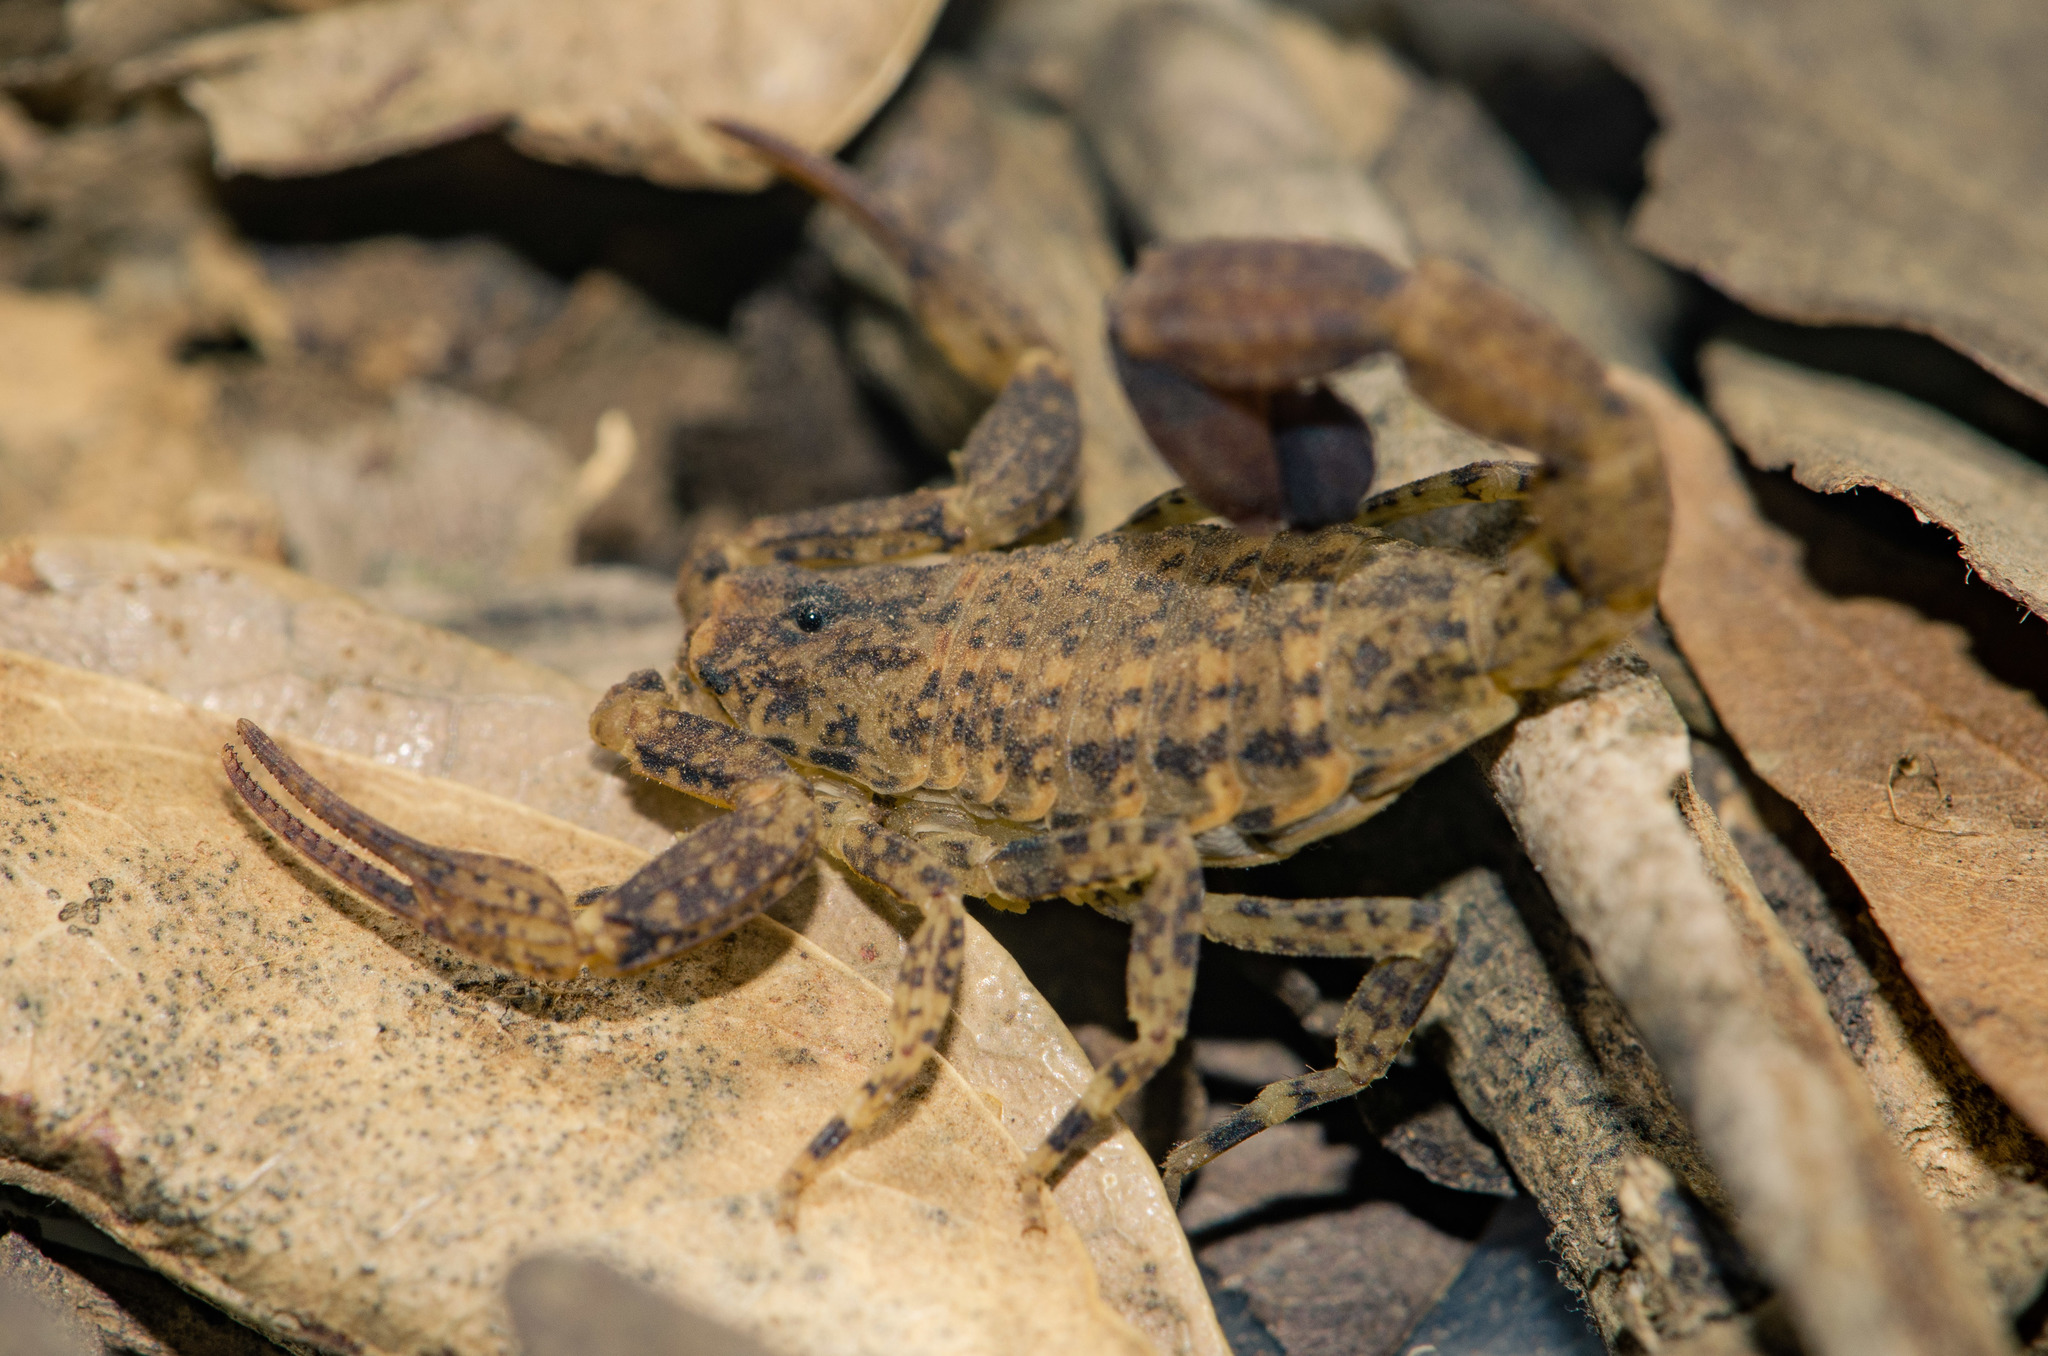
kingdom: Animalia
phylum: Arthropoda
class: Arachnida
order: Scorpiones
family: Buthidae
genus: Tityus
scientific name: Tityus mattogrossensis
